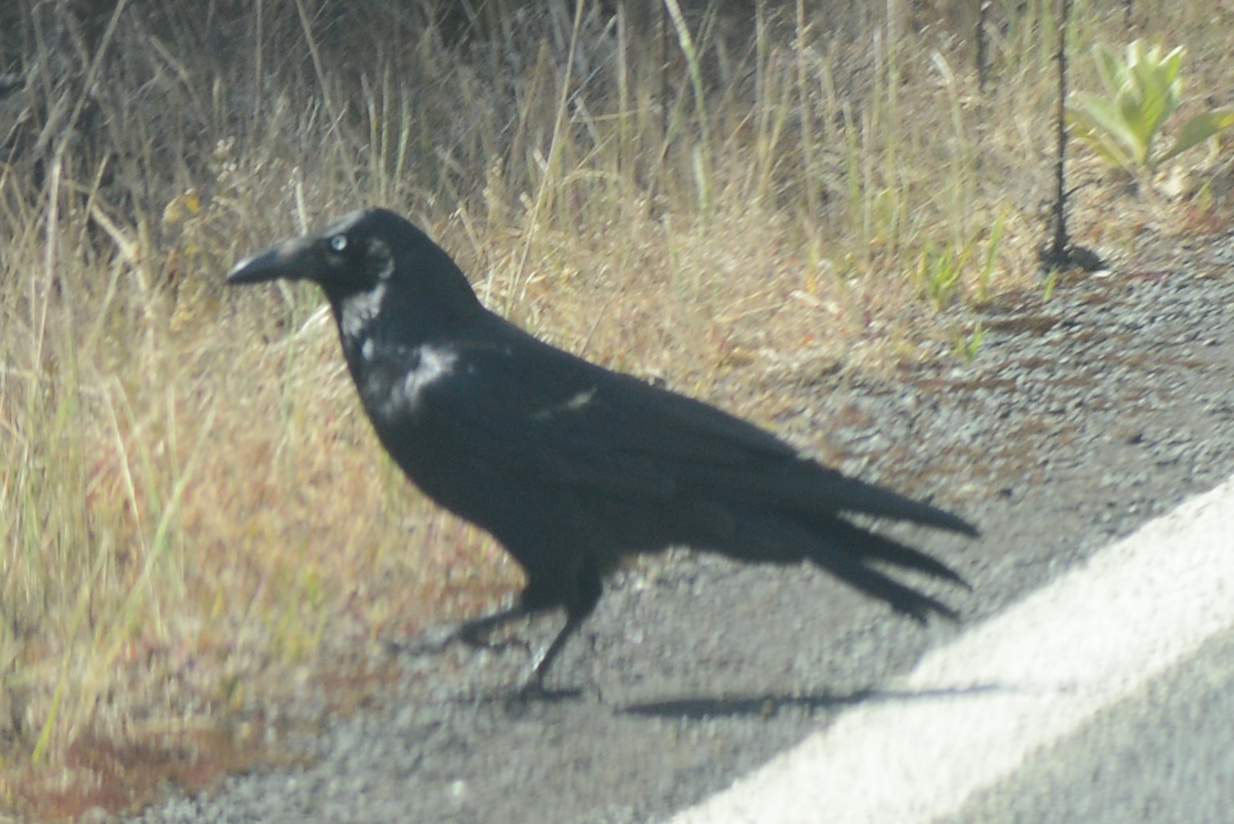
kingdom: Animalia
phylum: Chordata
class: Aves
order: Passeriformes
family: Corvidae
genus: Corvus
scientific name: Corvus tasmanicus
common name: Forest raven
